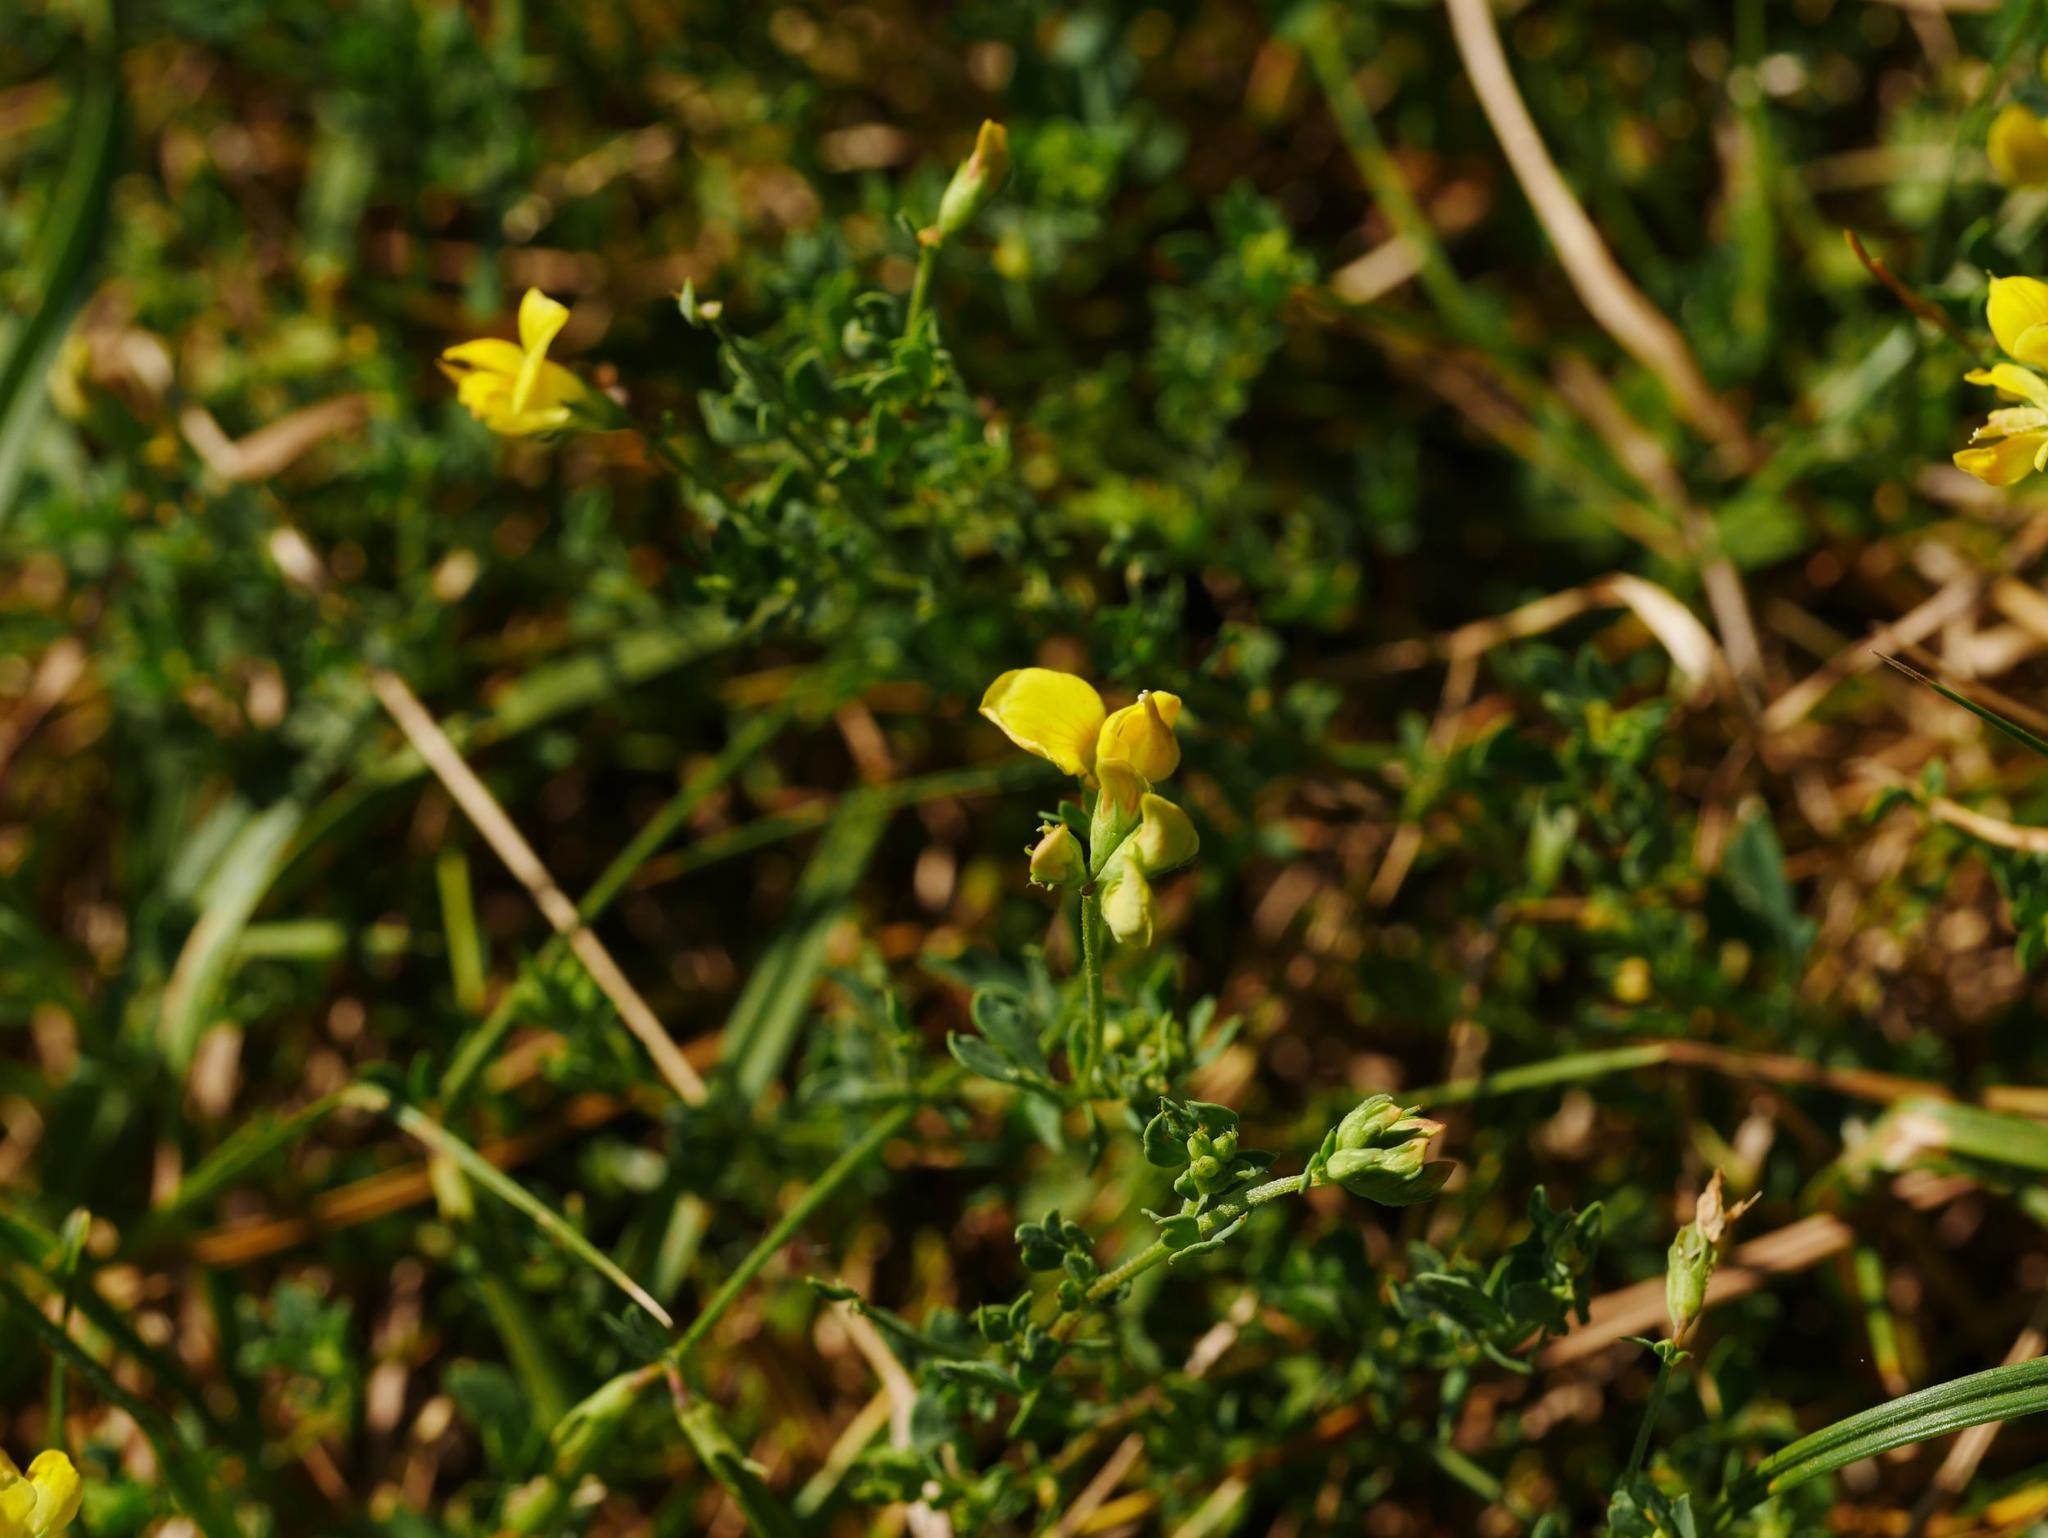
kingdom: Plantae
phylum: Tracheophyta
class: Magnoliopsida
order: Fabales
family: Fabaceae
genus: Lotus
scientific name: Lotus corniculatus
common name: Common bird's-foot-trefoil
